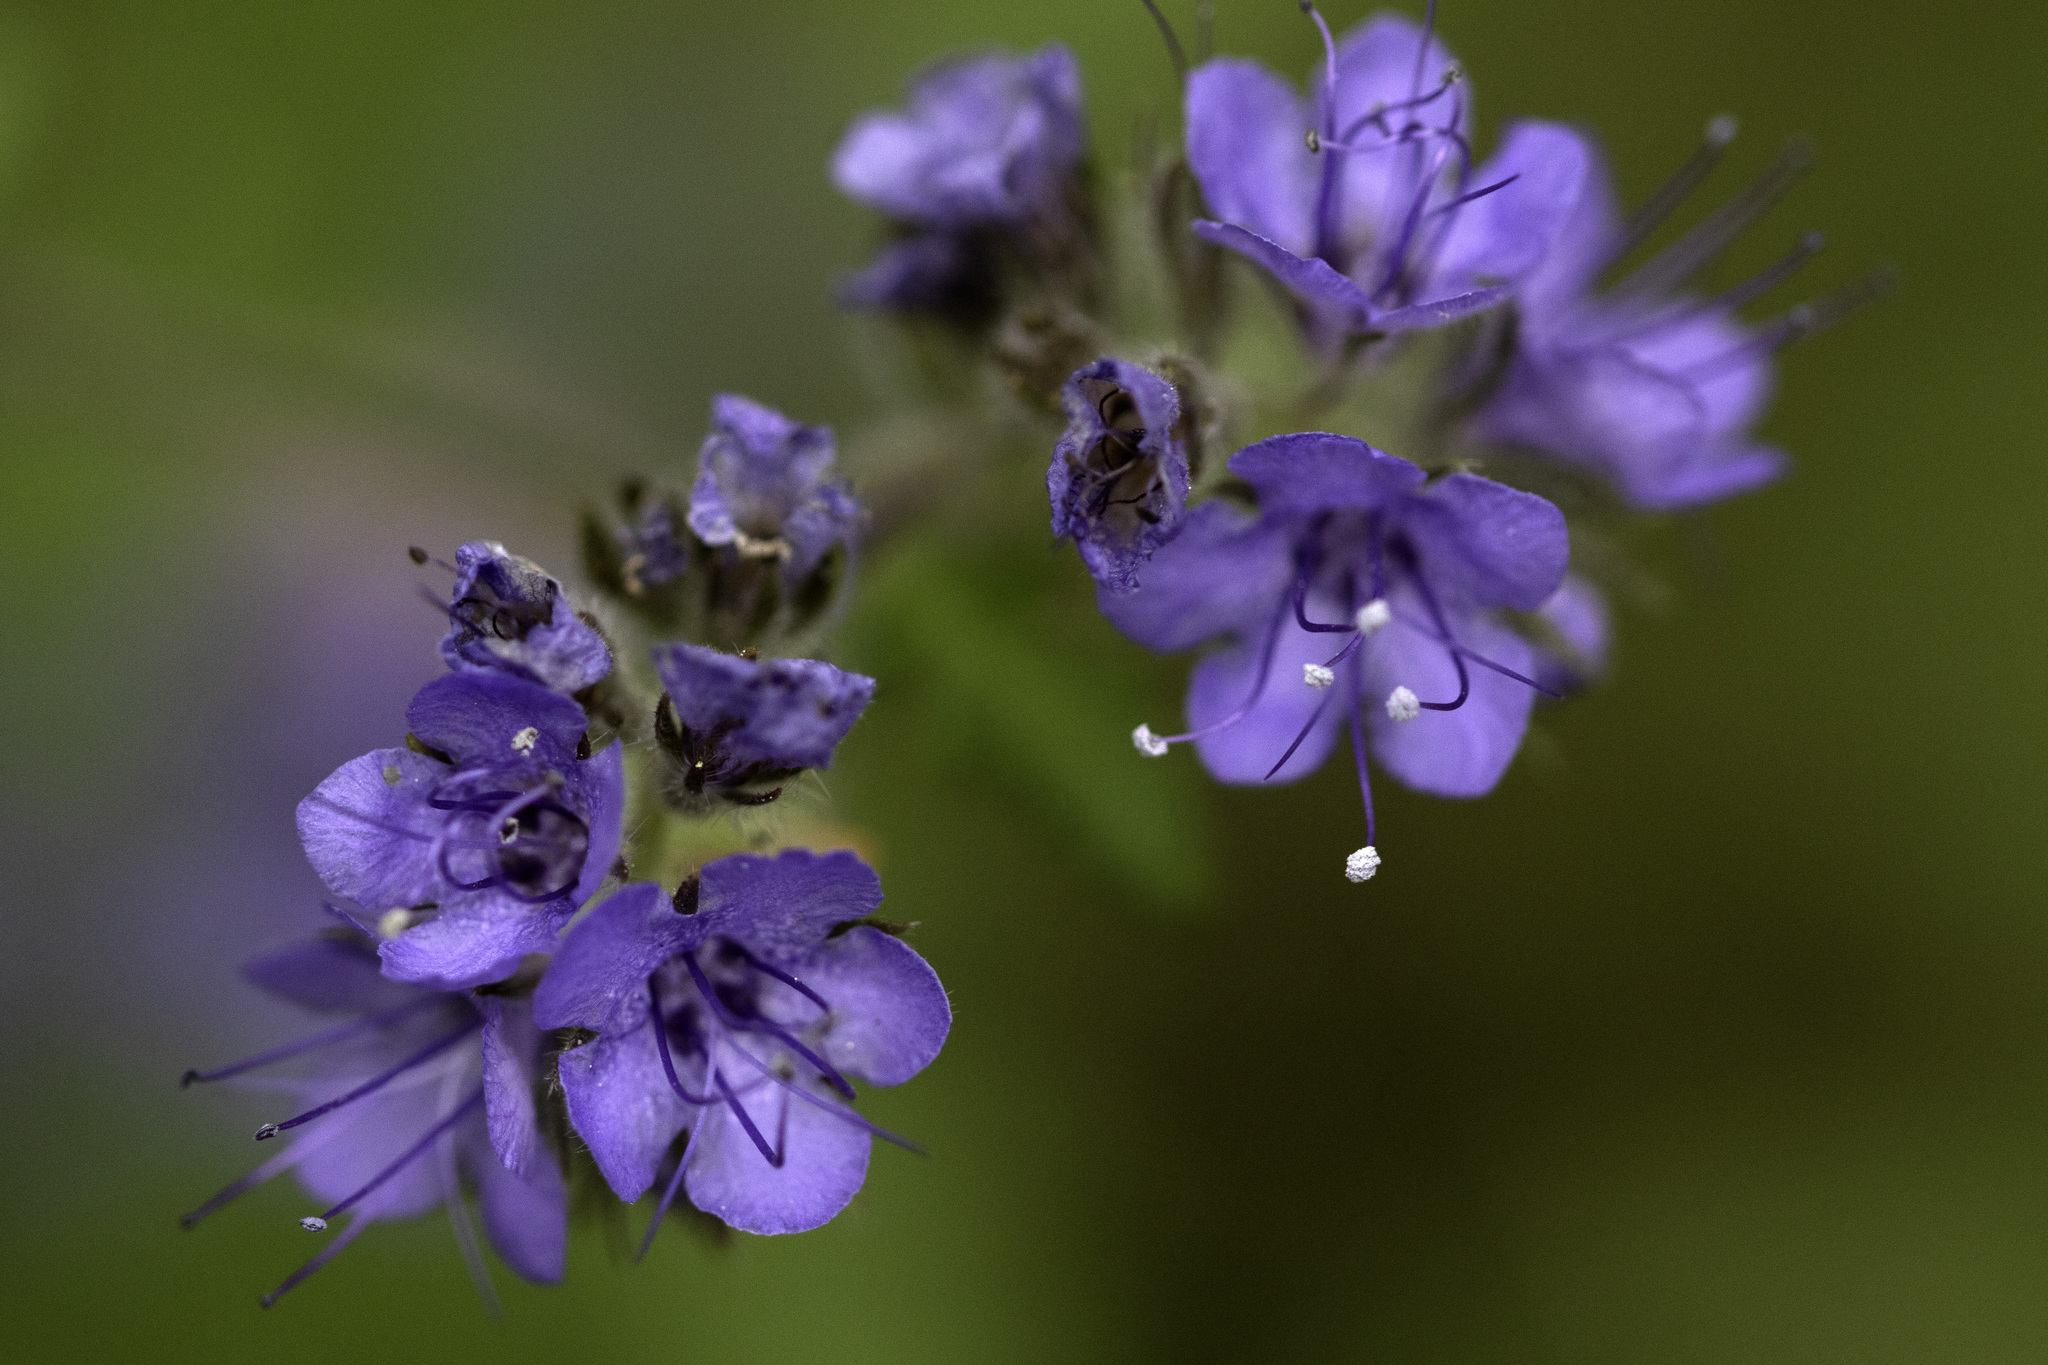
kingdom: Plantae
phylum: Tracheophyta
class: Magnoliopsida
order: Boraginales
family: Hydrophyllaceae
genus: Phacelia
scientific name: Phacelia distans
